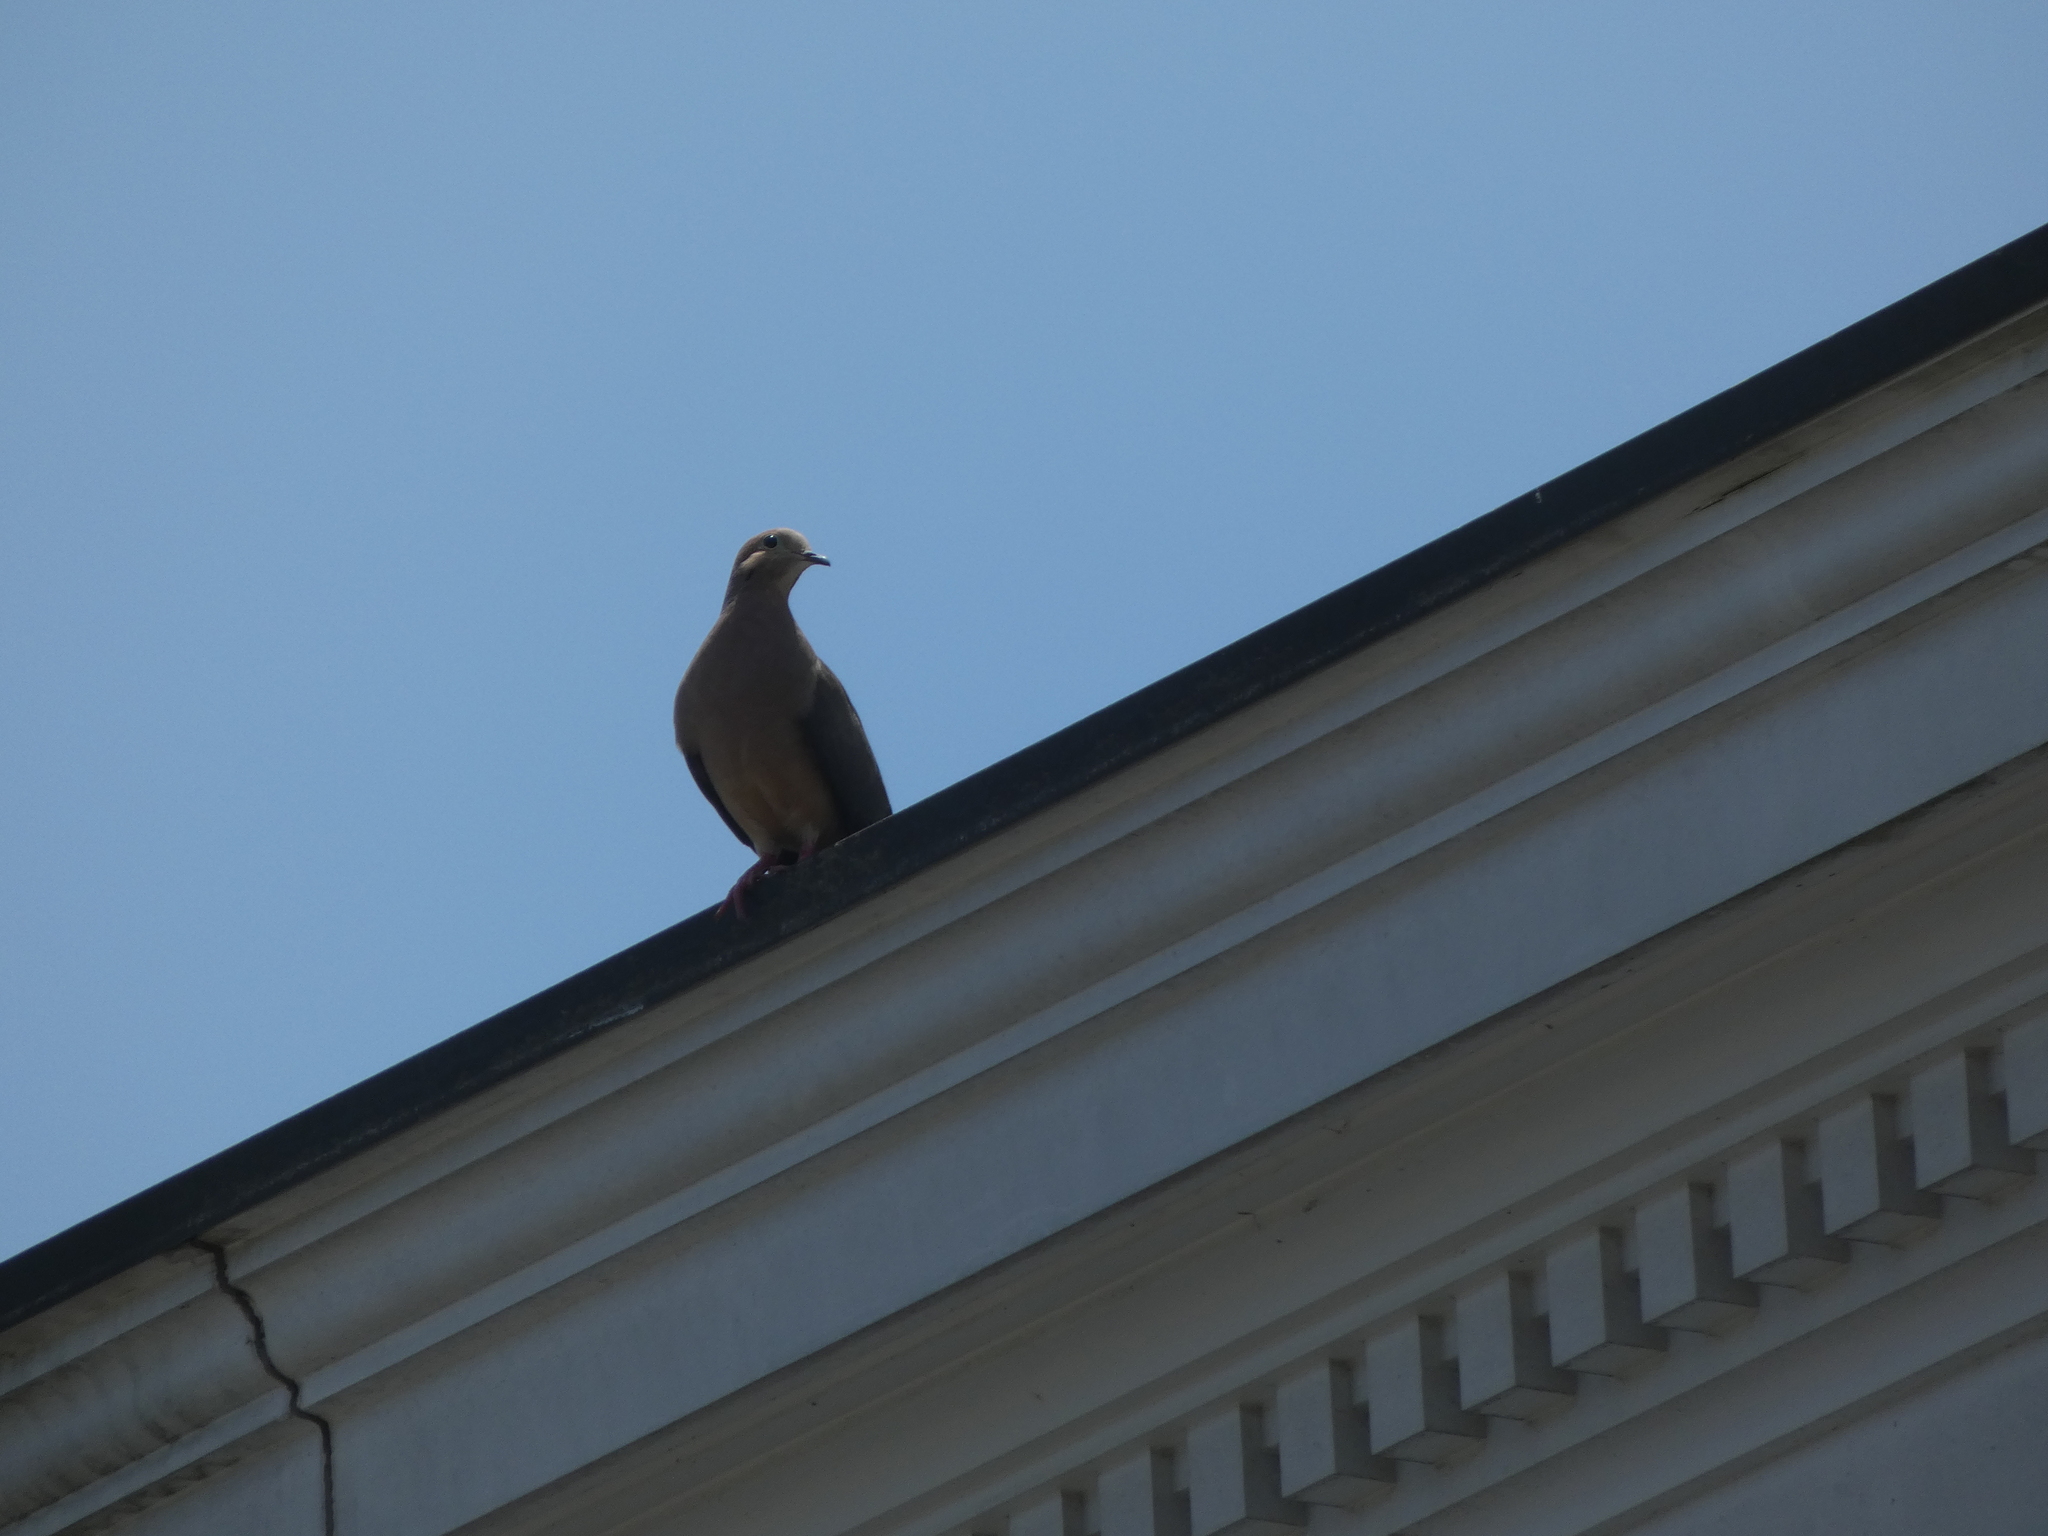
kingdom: Animalia
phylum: Chordata
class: Aves
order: Columbiformes
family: Columbidae
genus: Zenaida
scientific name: Zenaida macroura
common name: Mourning dove
